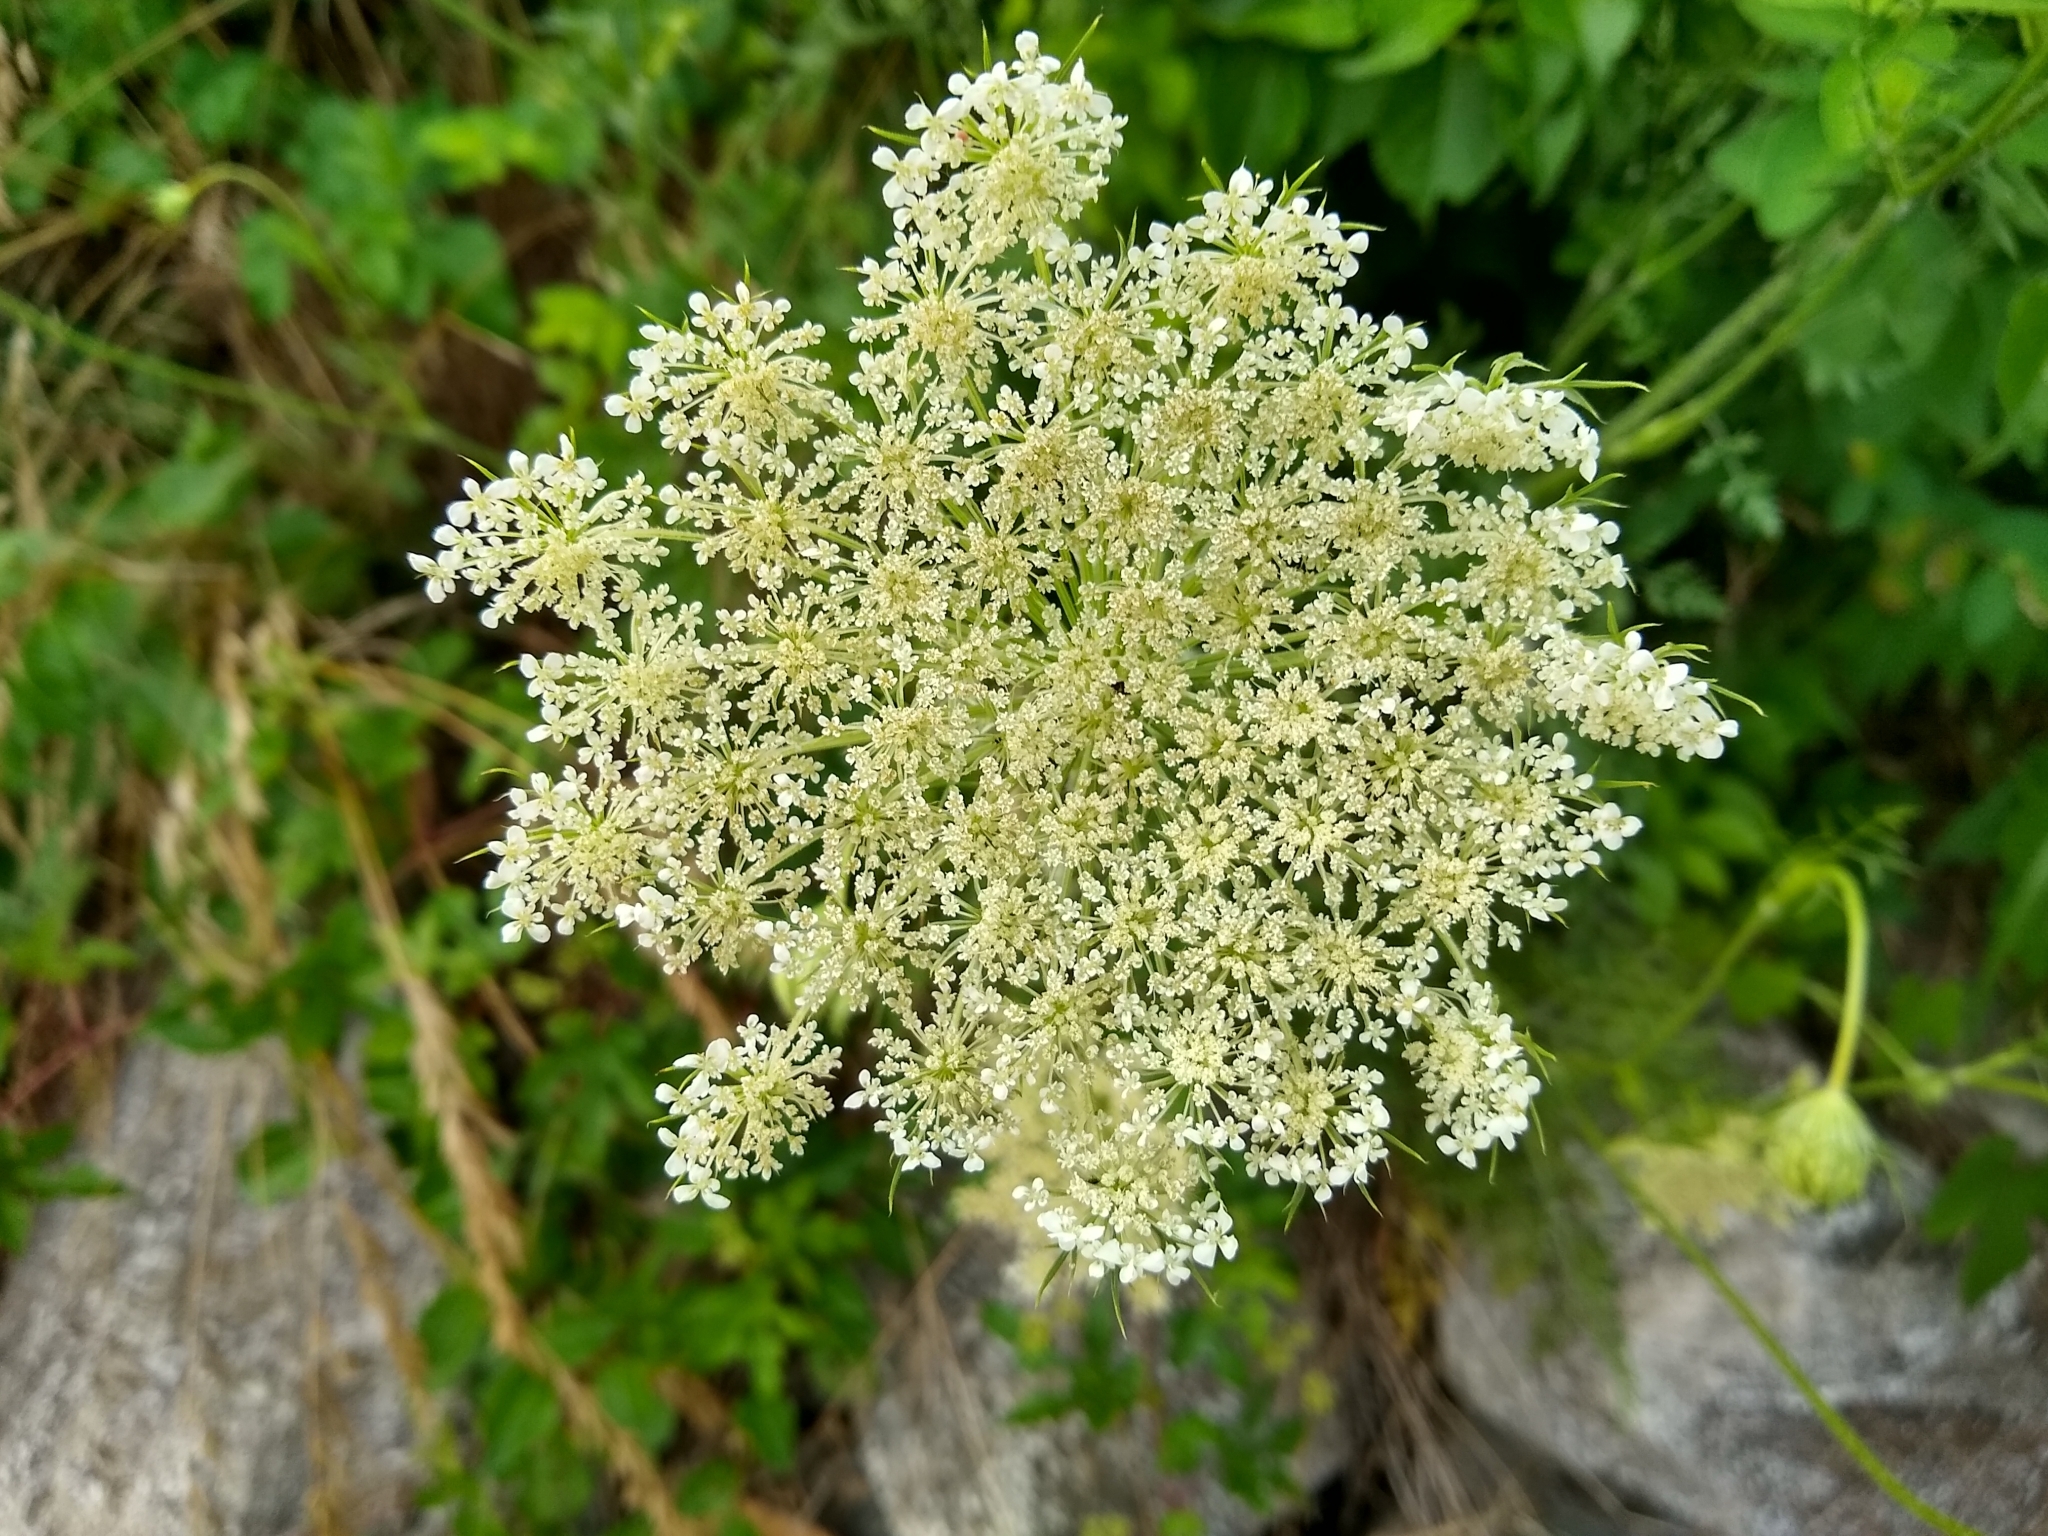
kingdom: Plantae
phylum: Tracheophyta
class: Magnoliopsida
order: Apiales
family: Apiaceae
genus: Daucus
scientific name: Daucus carota
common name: Wild carrot
